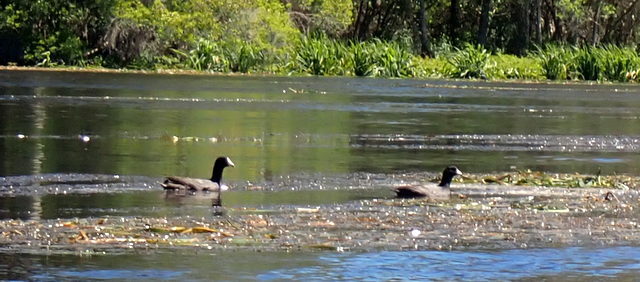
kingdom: Animalia
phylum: Chordata
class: Aves
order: Gruiformes
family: Rallidae
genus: Fulica
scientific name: Fulica americana
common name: American coot
